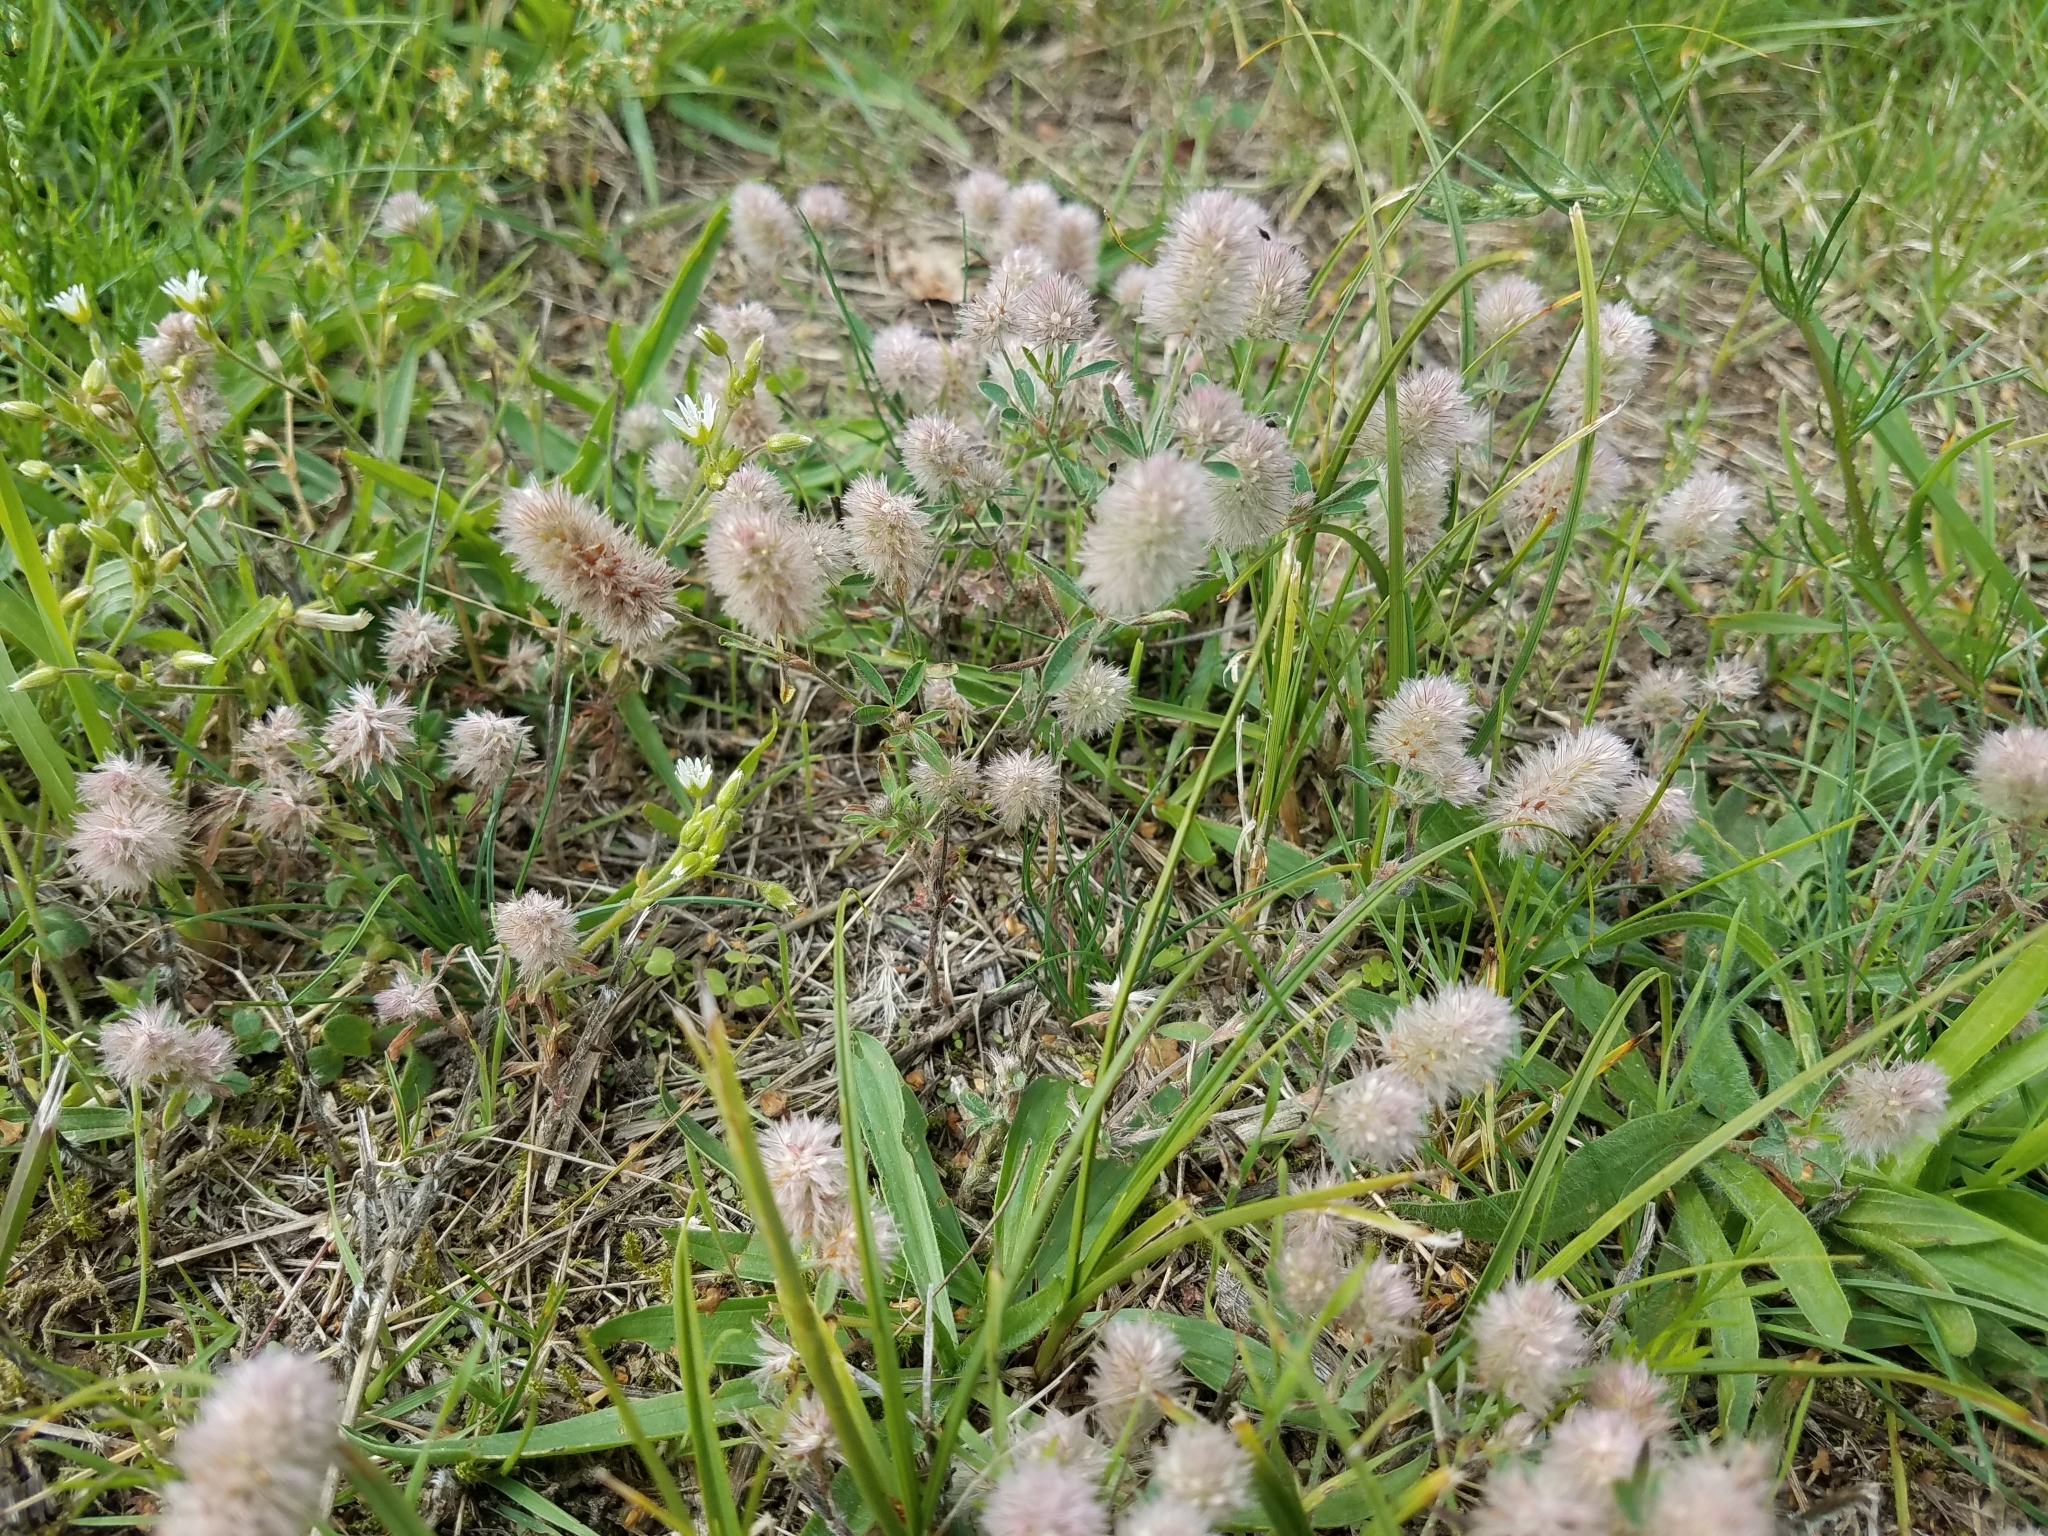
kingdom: Plantae
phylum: Tracheophyta
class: Magnoliopsida
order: Fabales
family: Fabaceae
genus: Trifolium
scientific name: Trifolium arvense
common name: Hare's-foot clover
